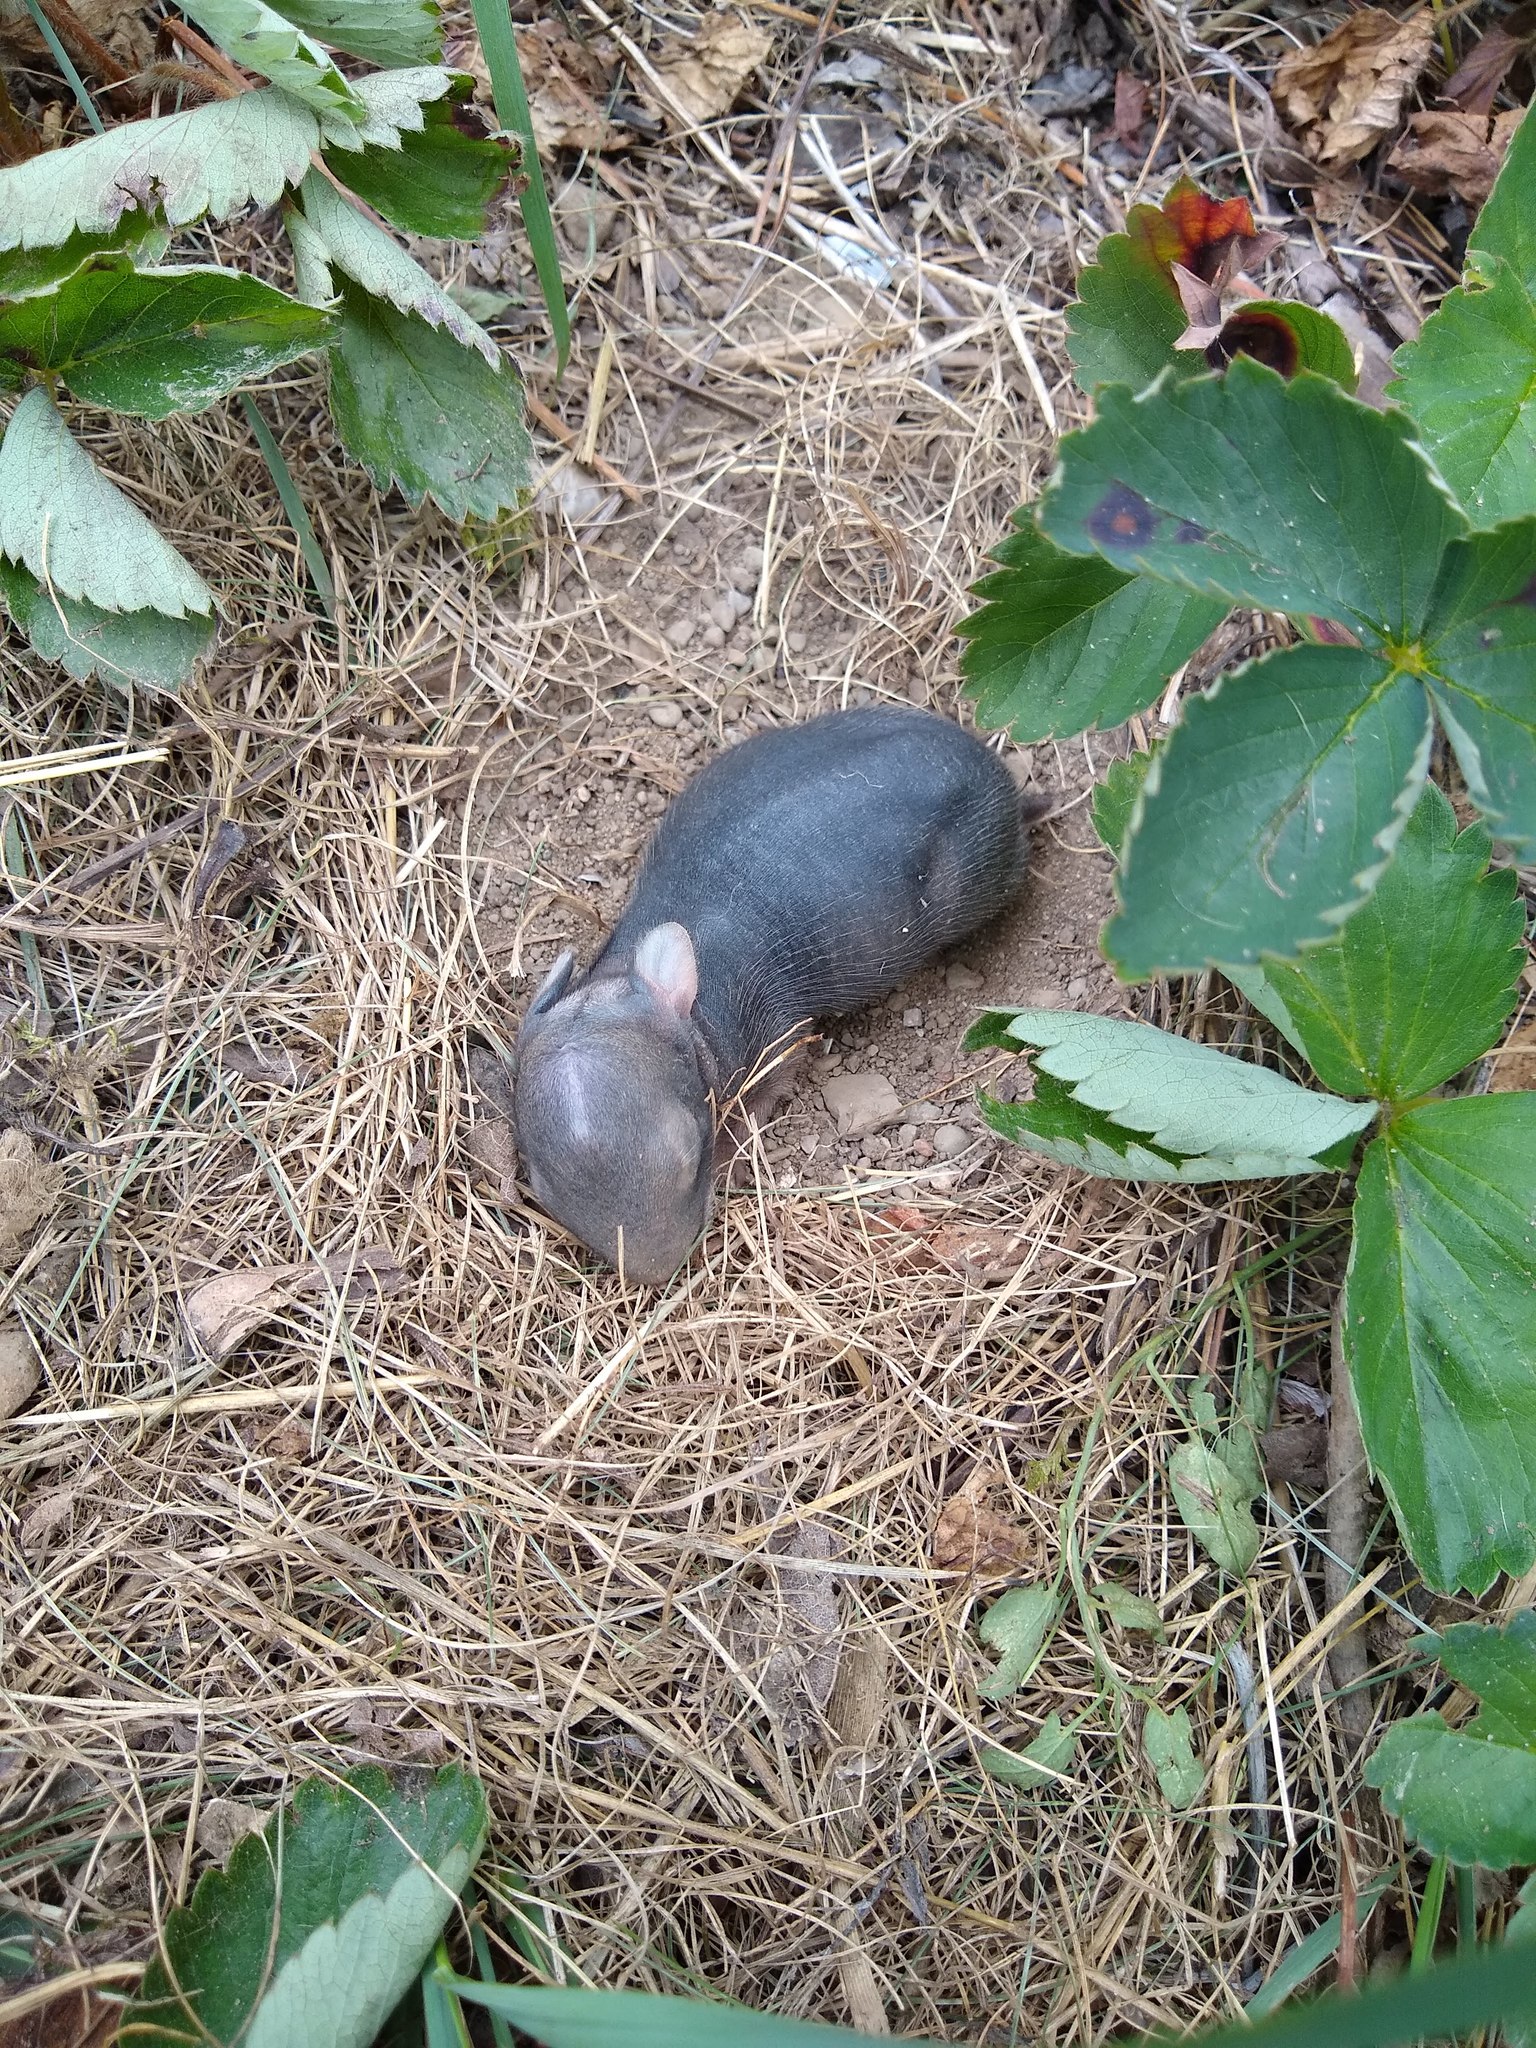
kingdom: Animalia
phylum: Chordata
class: Mammalia
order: Lagomorpha
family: Leporidae
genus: Sylvilagus
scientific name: Sylvilagus floridanus
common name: Eastern cottontail
